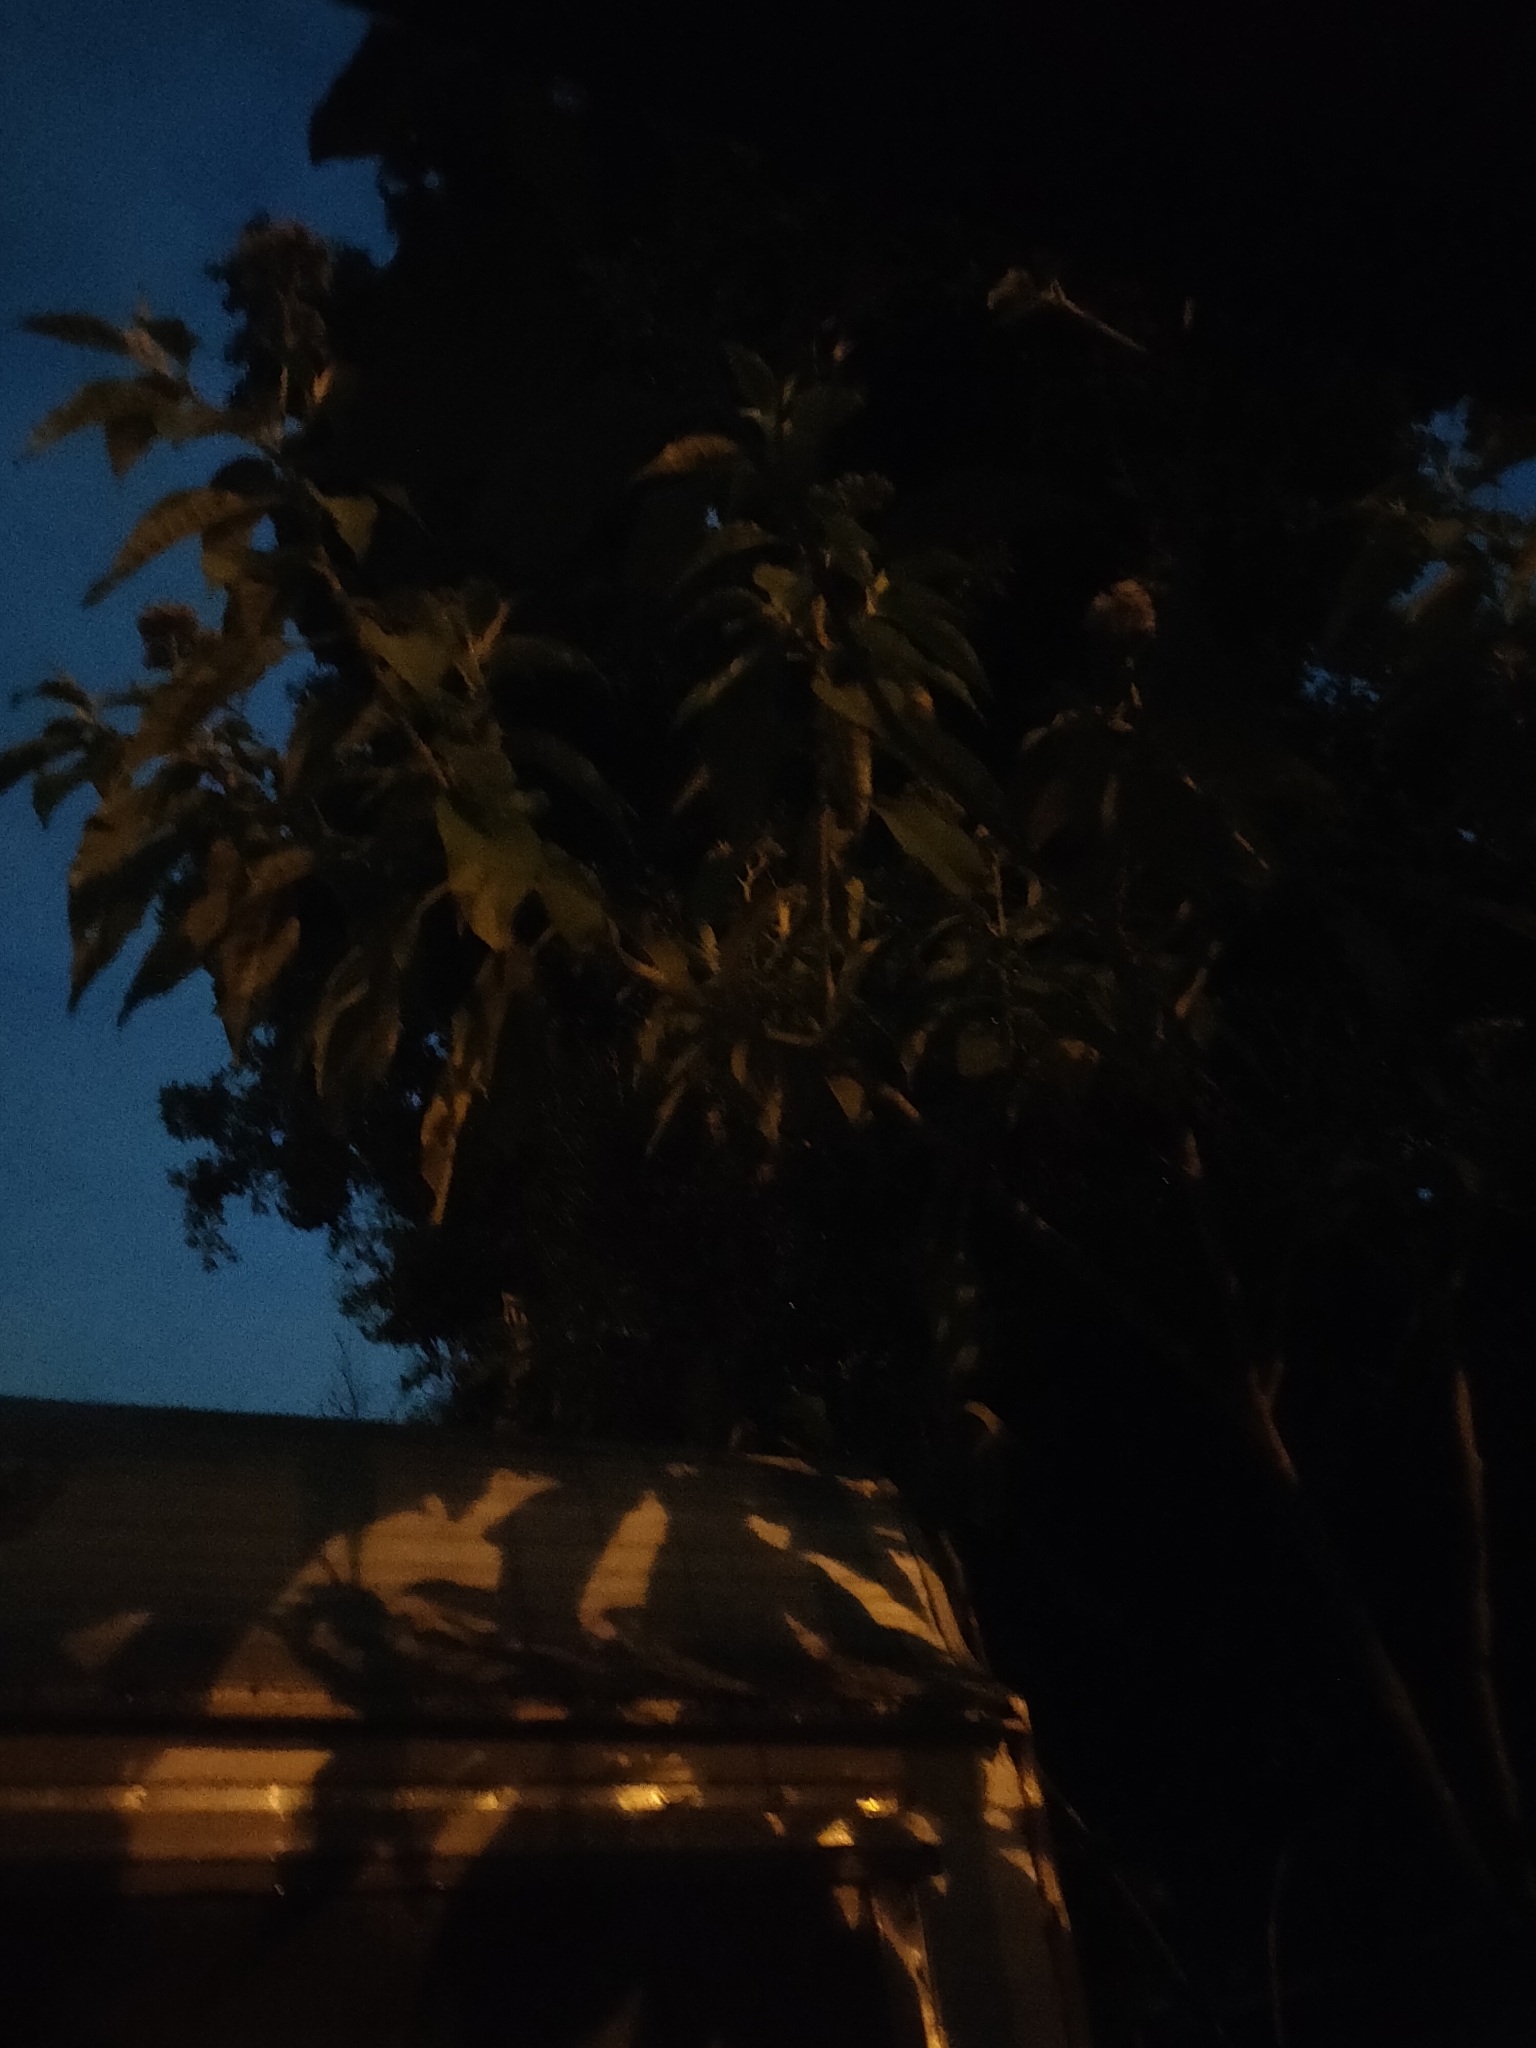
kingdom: Animalia
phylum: Chordata
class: Aves
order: Passeriformes
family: Turdidae
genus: Turdus
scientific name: Turdus merula
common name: Common blackbird
